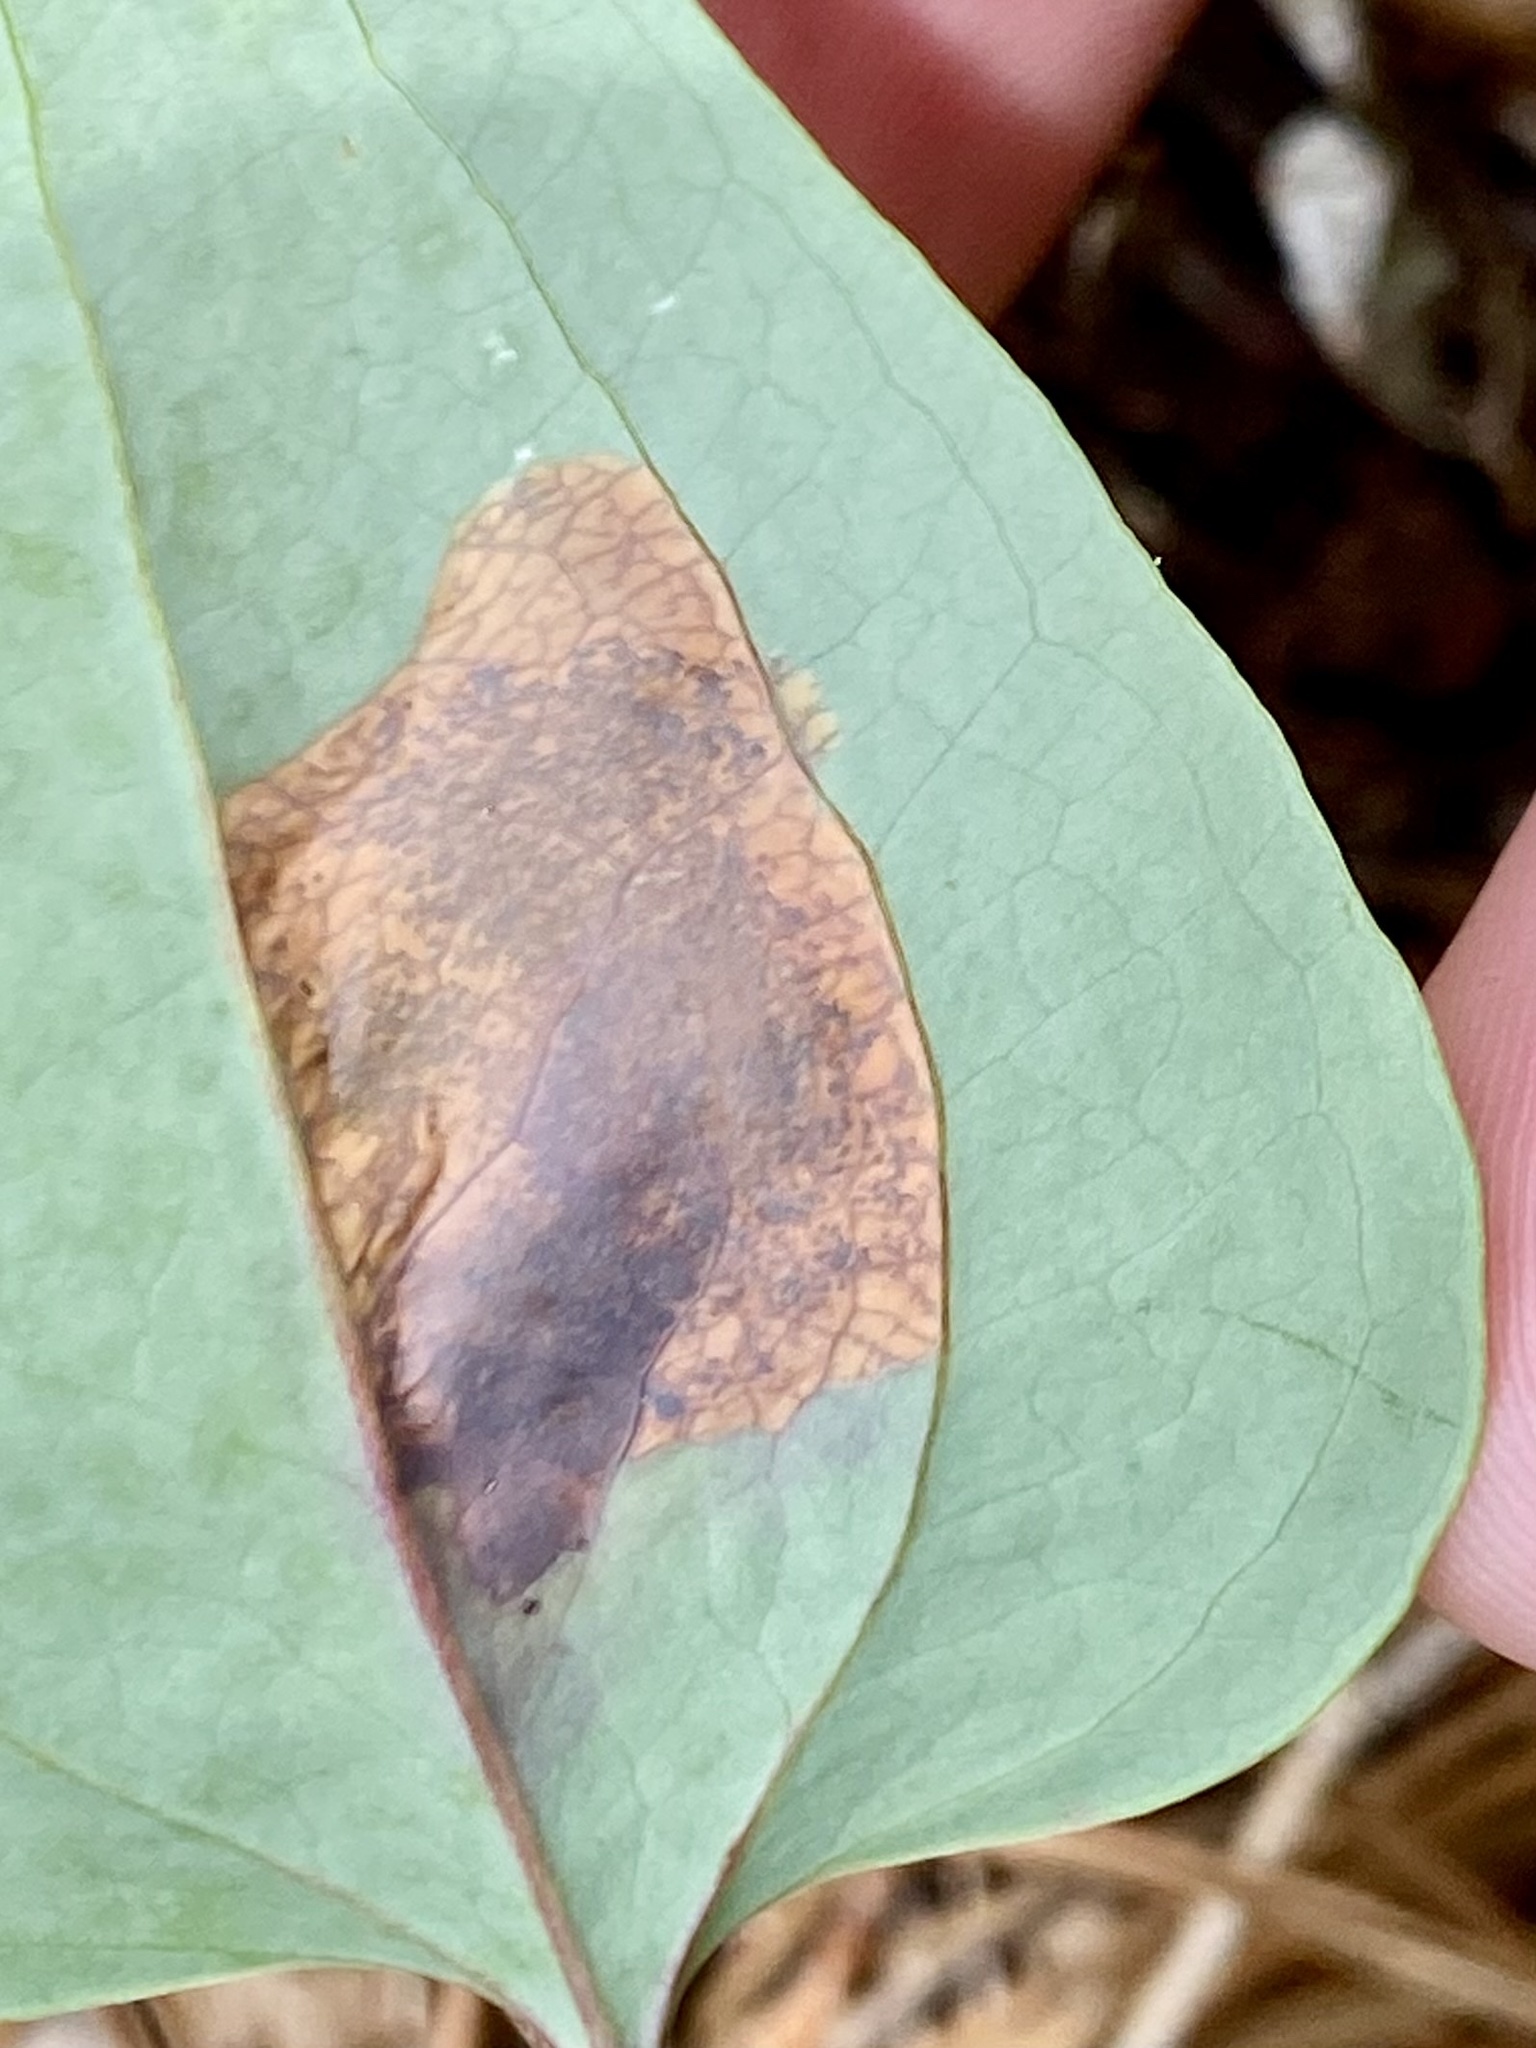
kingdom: Animalia
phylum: Arthropoda
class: Insecta
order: Lepidoptera
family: Lyonetiidae
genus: Leucoptera
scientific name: Leucoptera
